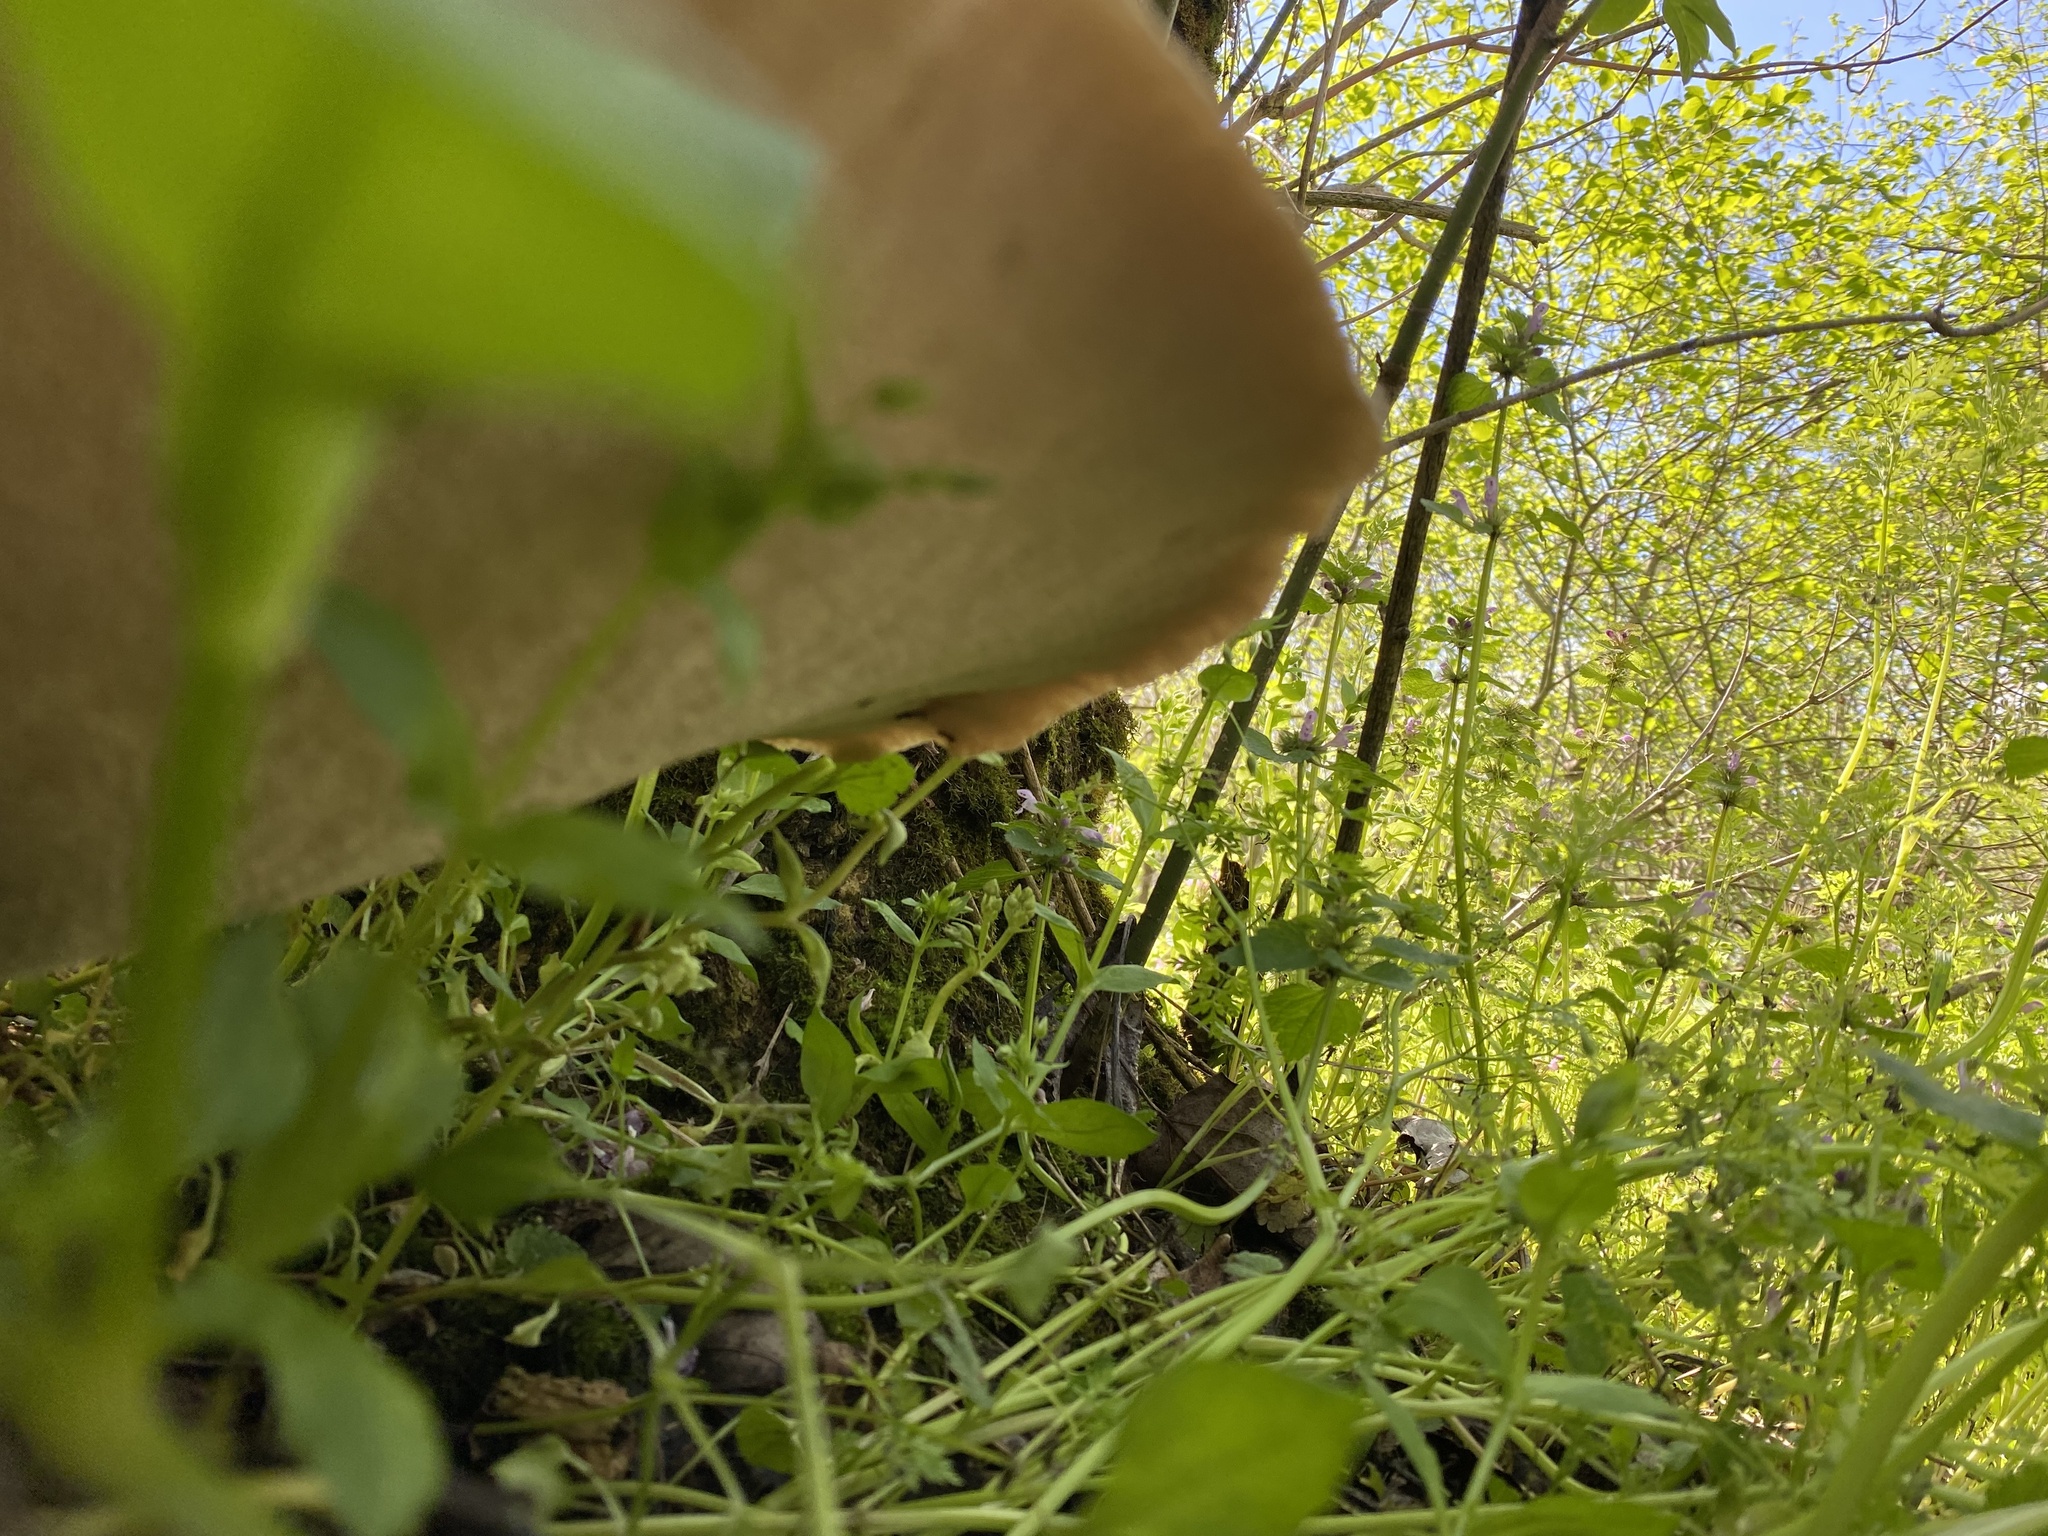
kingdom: Fungi
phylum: Basidiomycota
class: Agaricomycetes
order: Polyporales
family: Polyporaceae
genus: Cerioporus
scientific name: Cerioporus squamosus
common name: Dryad's saddle
